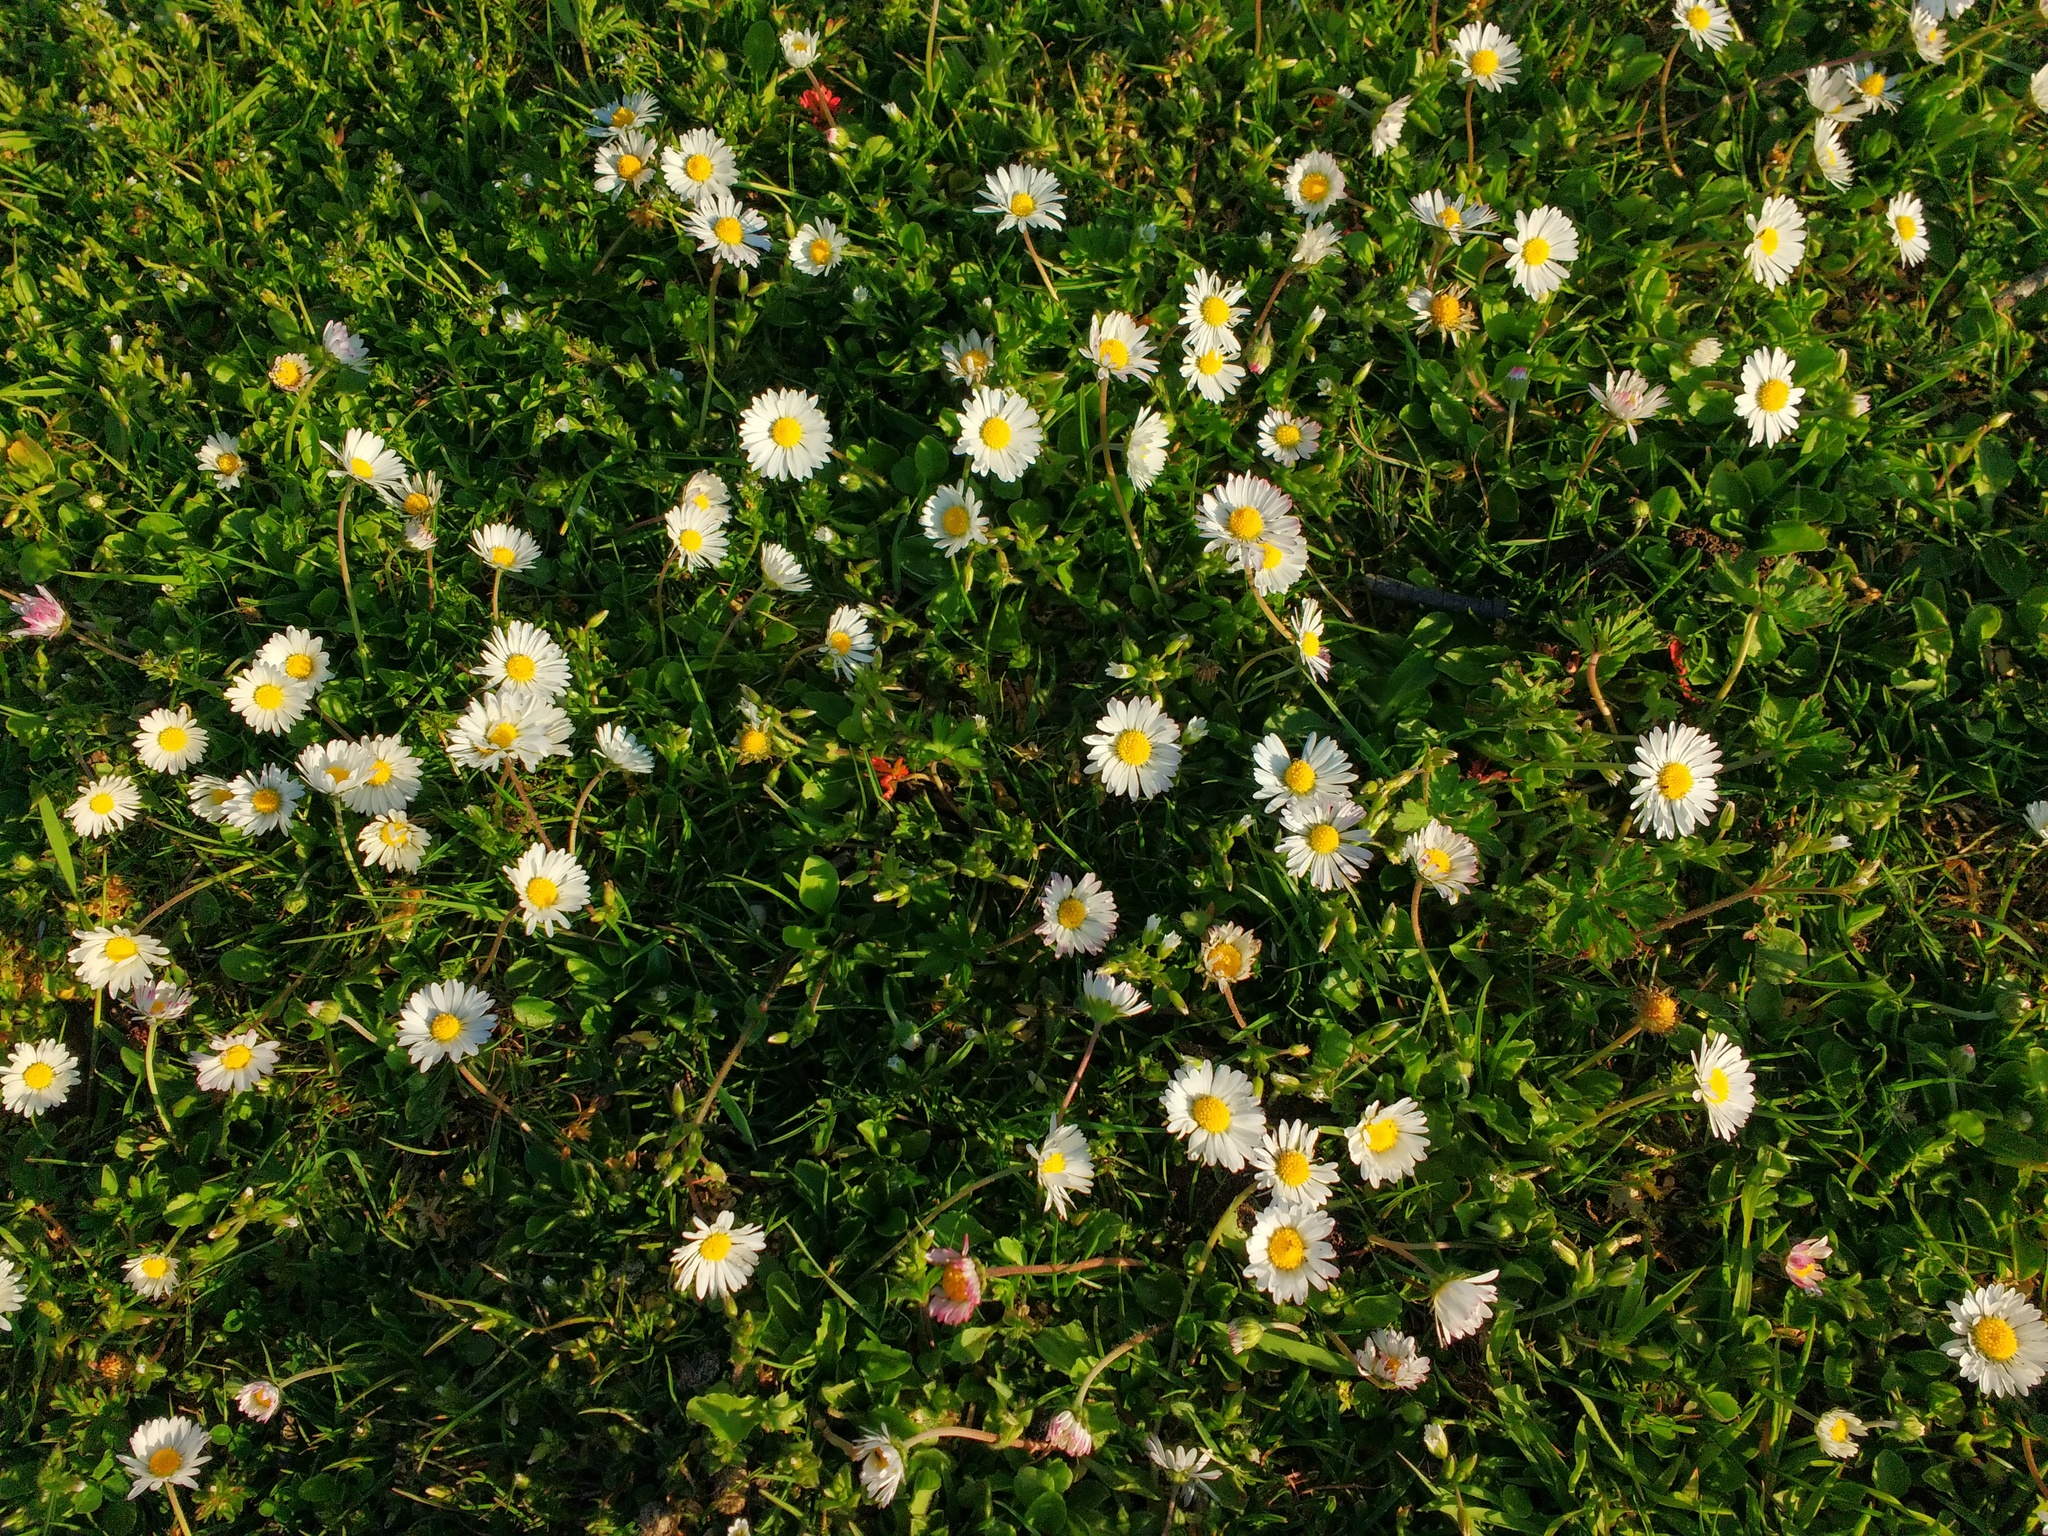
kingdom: Plantae
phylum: Tracheophyta
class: Magnoliopsida
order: Asterales
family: Asteraceae
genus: Bellis
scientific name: Bellis perennis
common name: Lawndaisy
